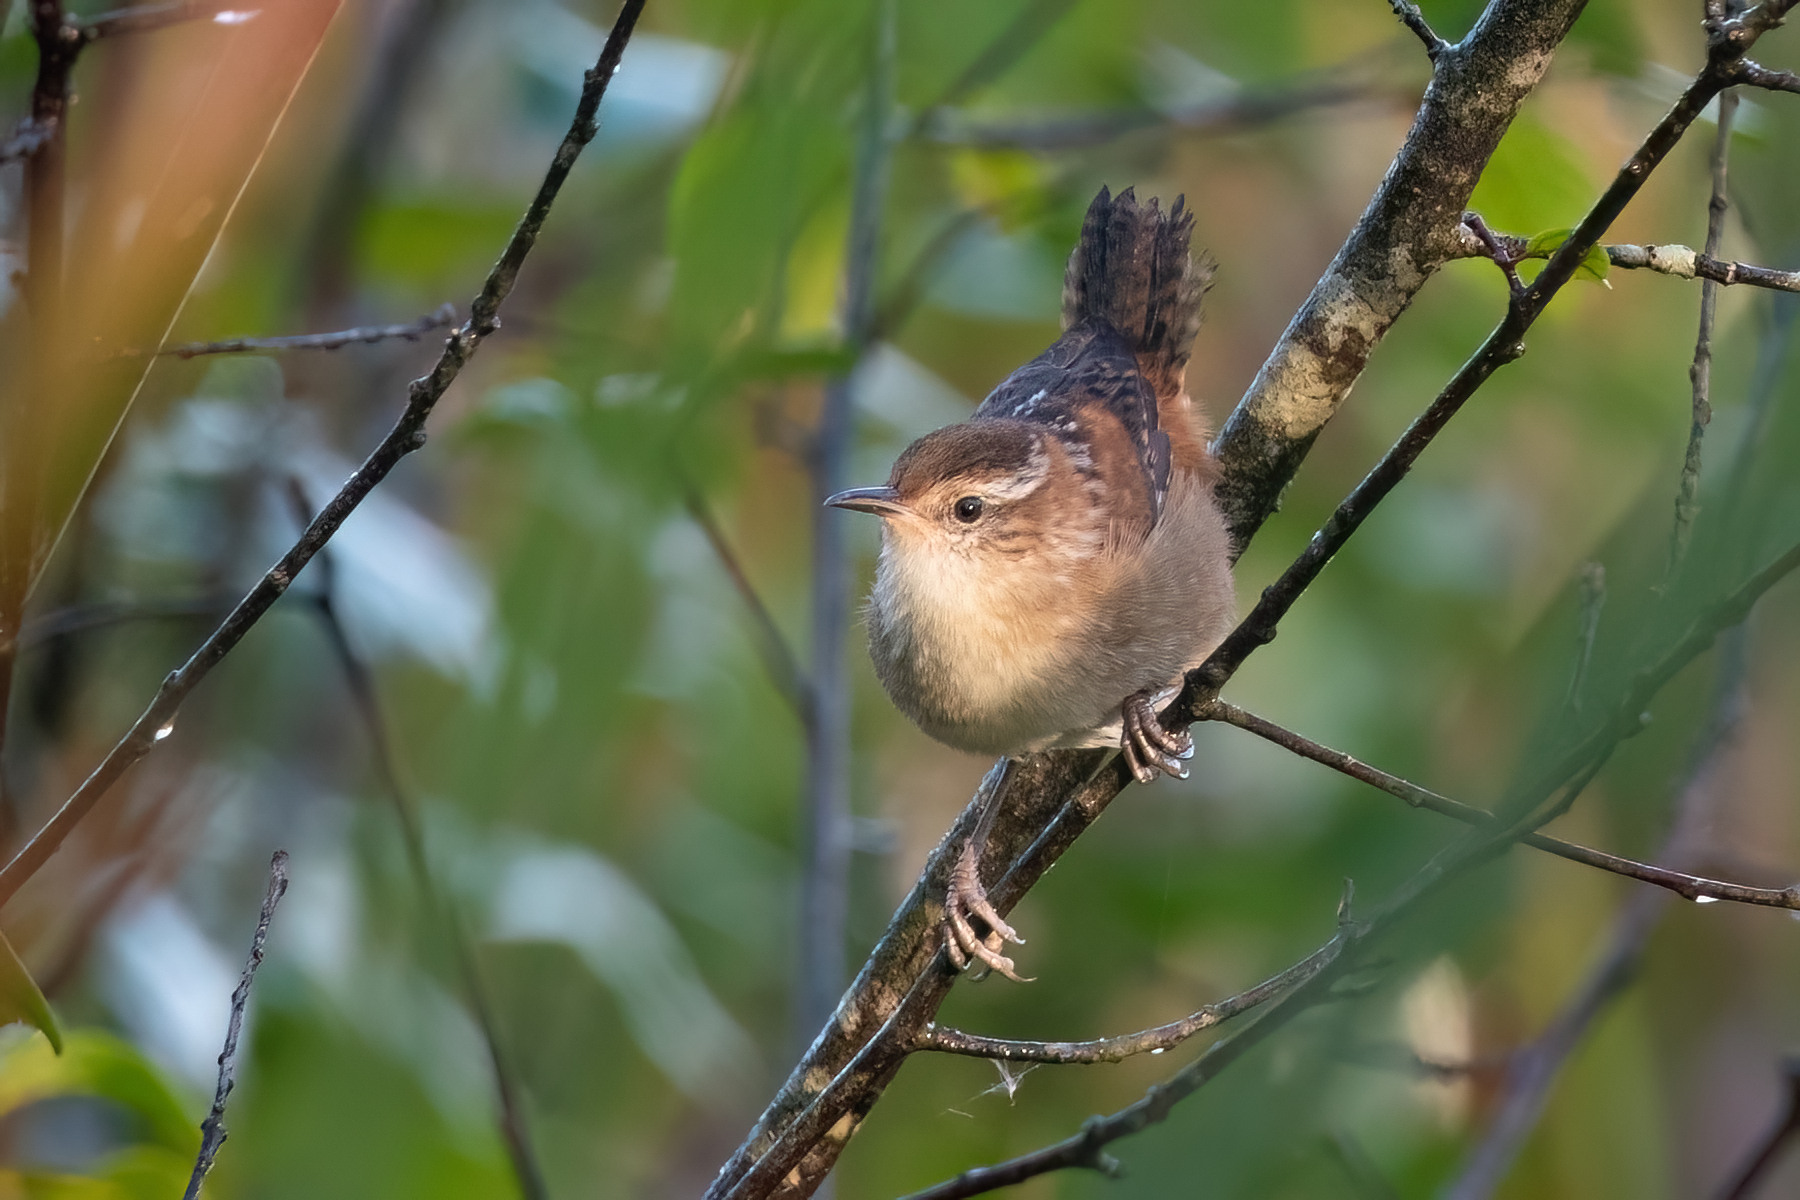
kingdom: Animalia
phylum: Chordata
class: Aves
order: Passeriformes
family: Troglodytidae
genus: Cistothorus
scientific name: Cistothorus palustris
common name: Marsh wren
